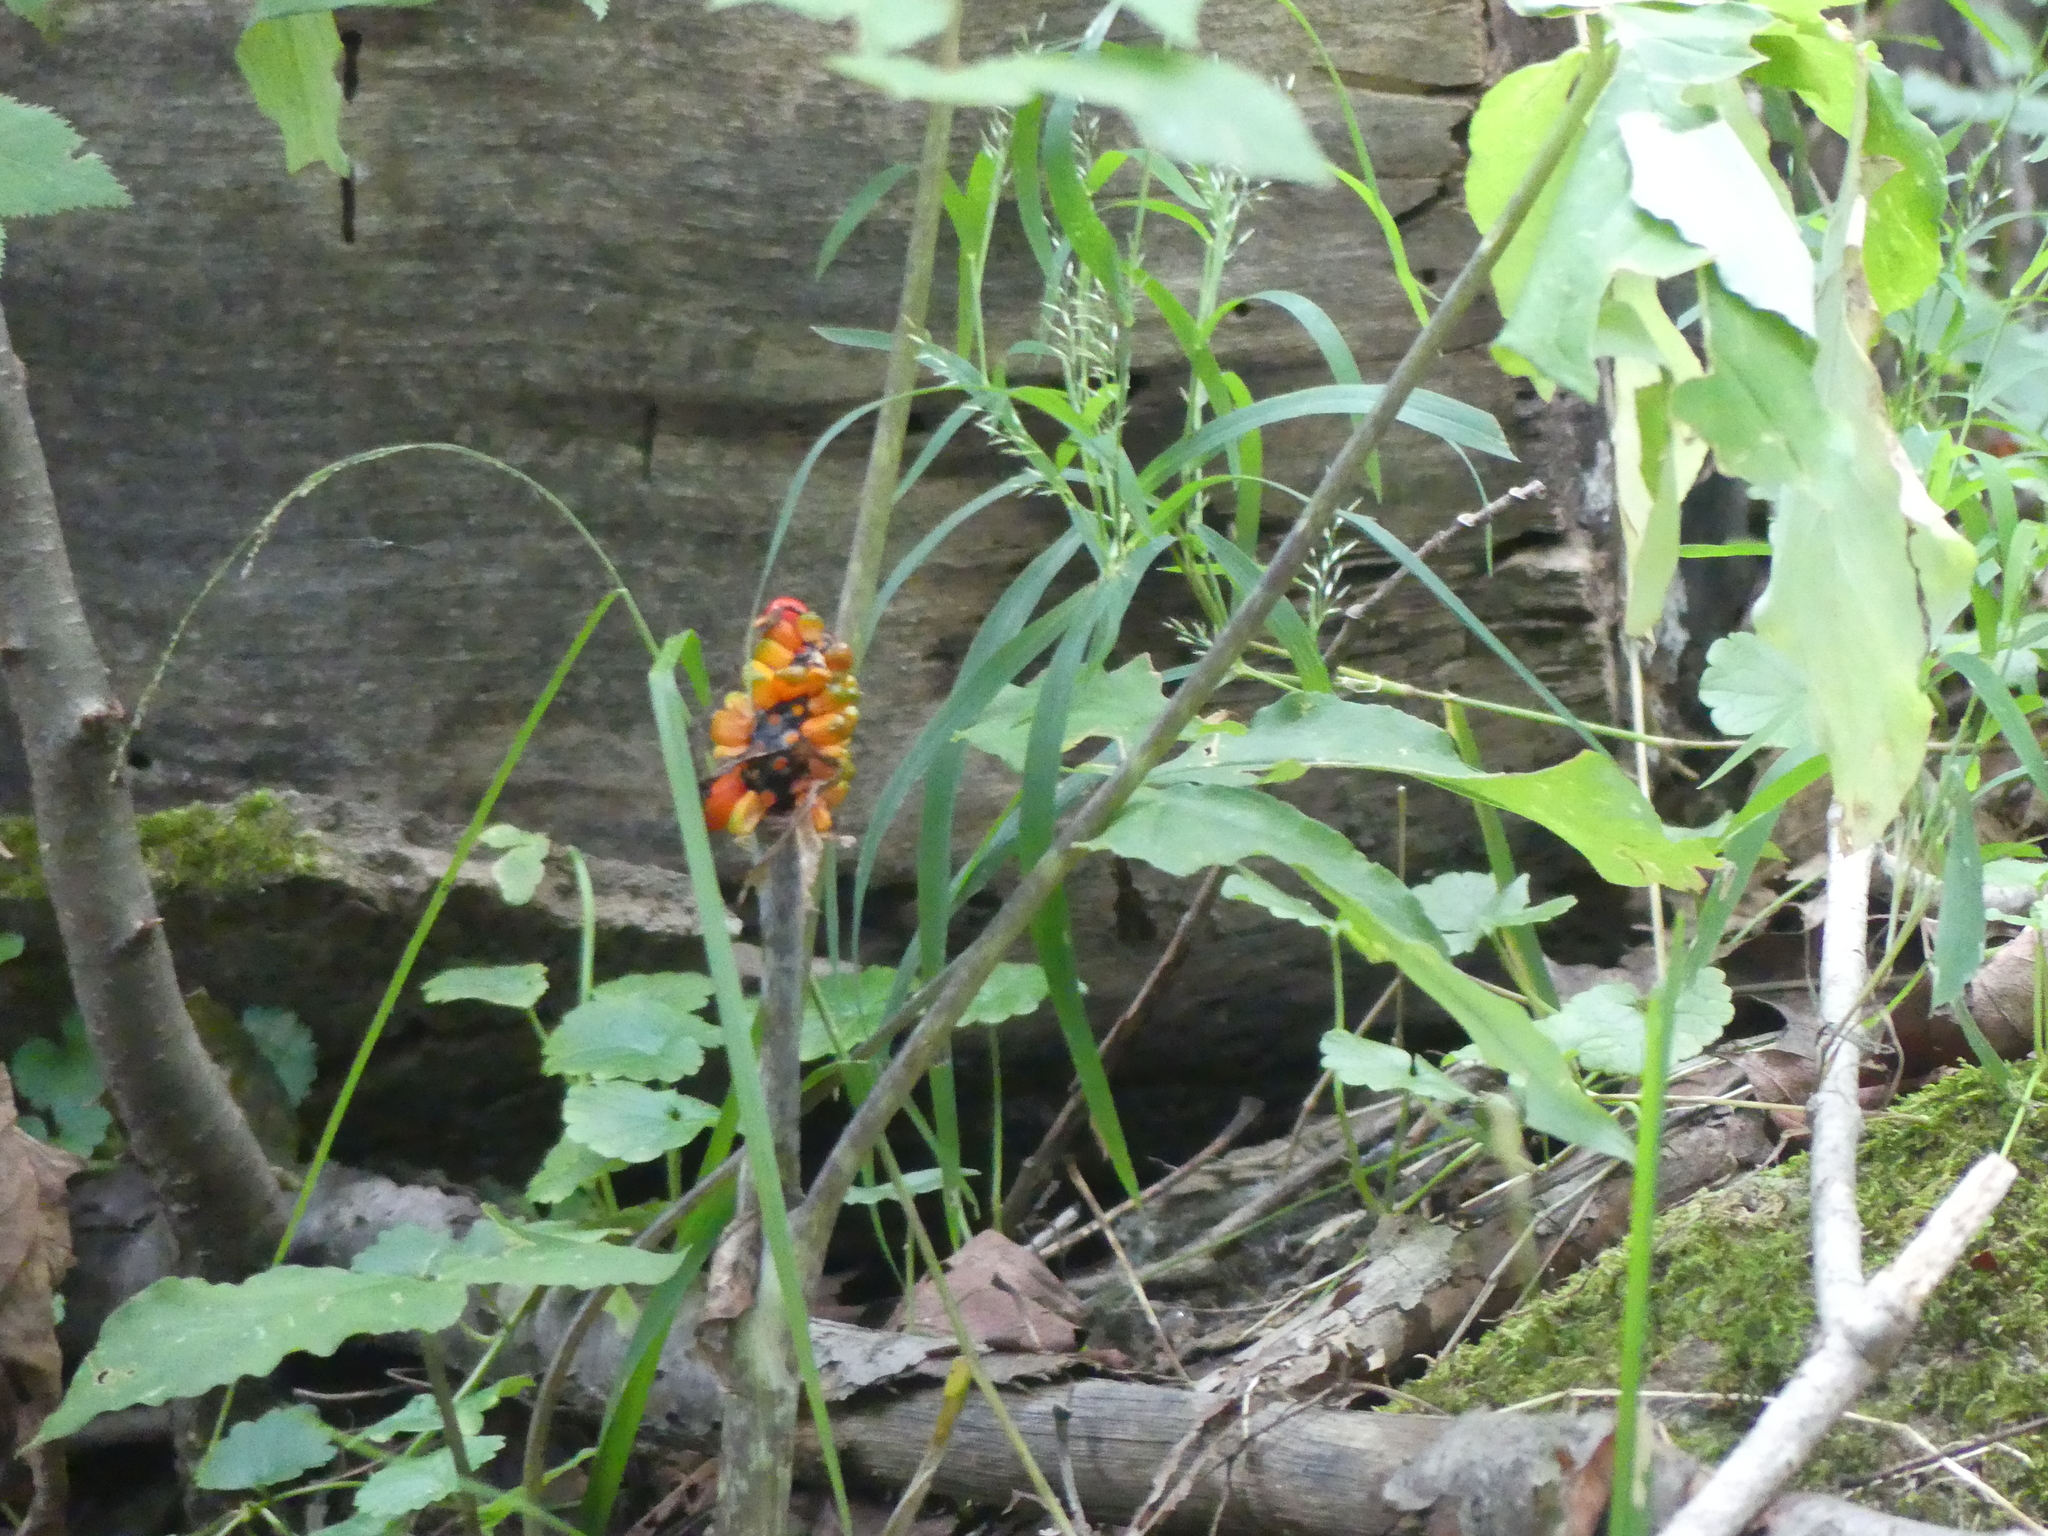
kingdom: Plantae
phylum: Tracheophyta
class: Liliopsida
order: Alismatales
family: Araceae
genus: Arisaema
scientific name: Arisaema triphyllum
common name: Jack-in-the-pulpit
